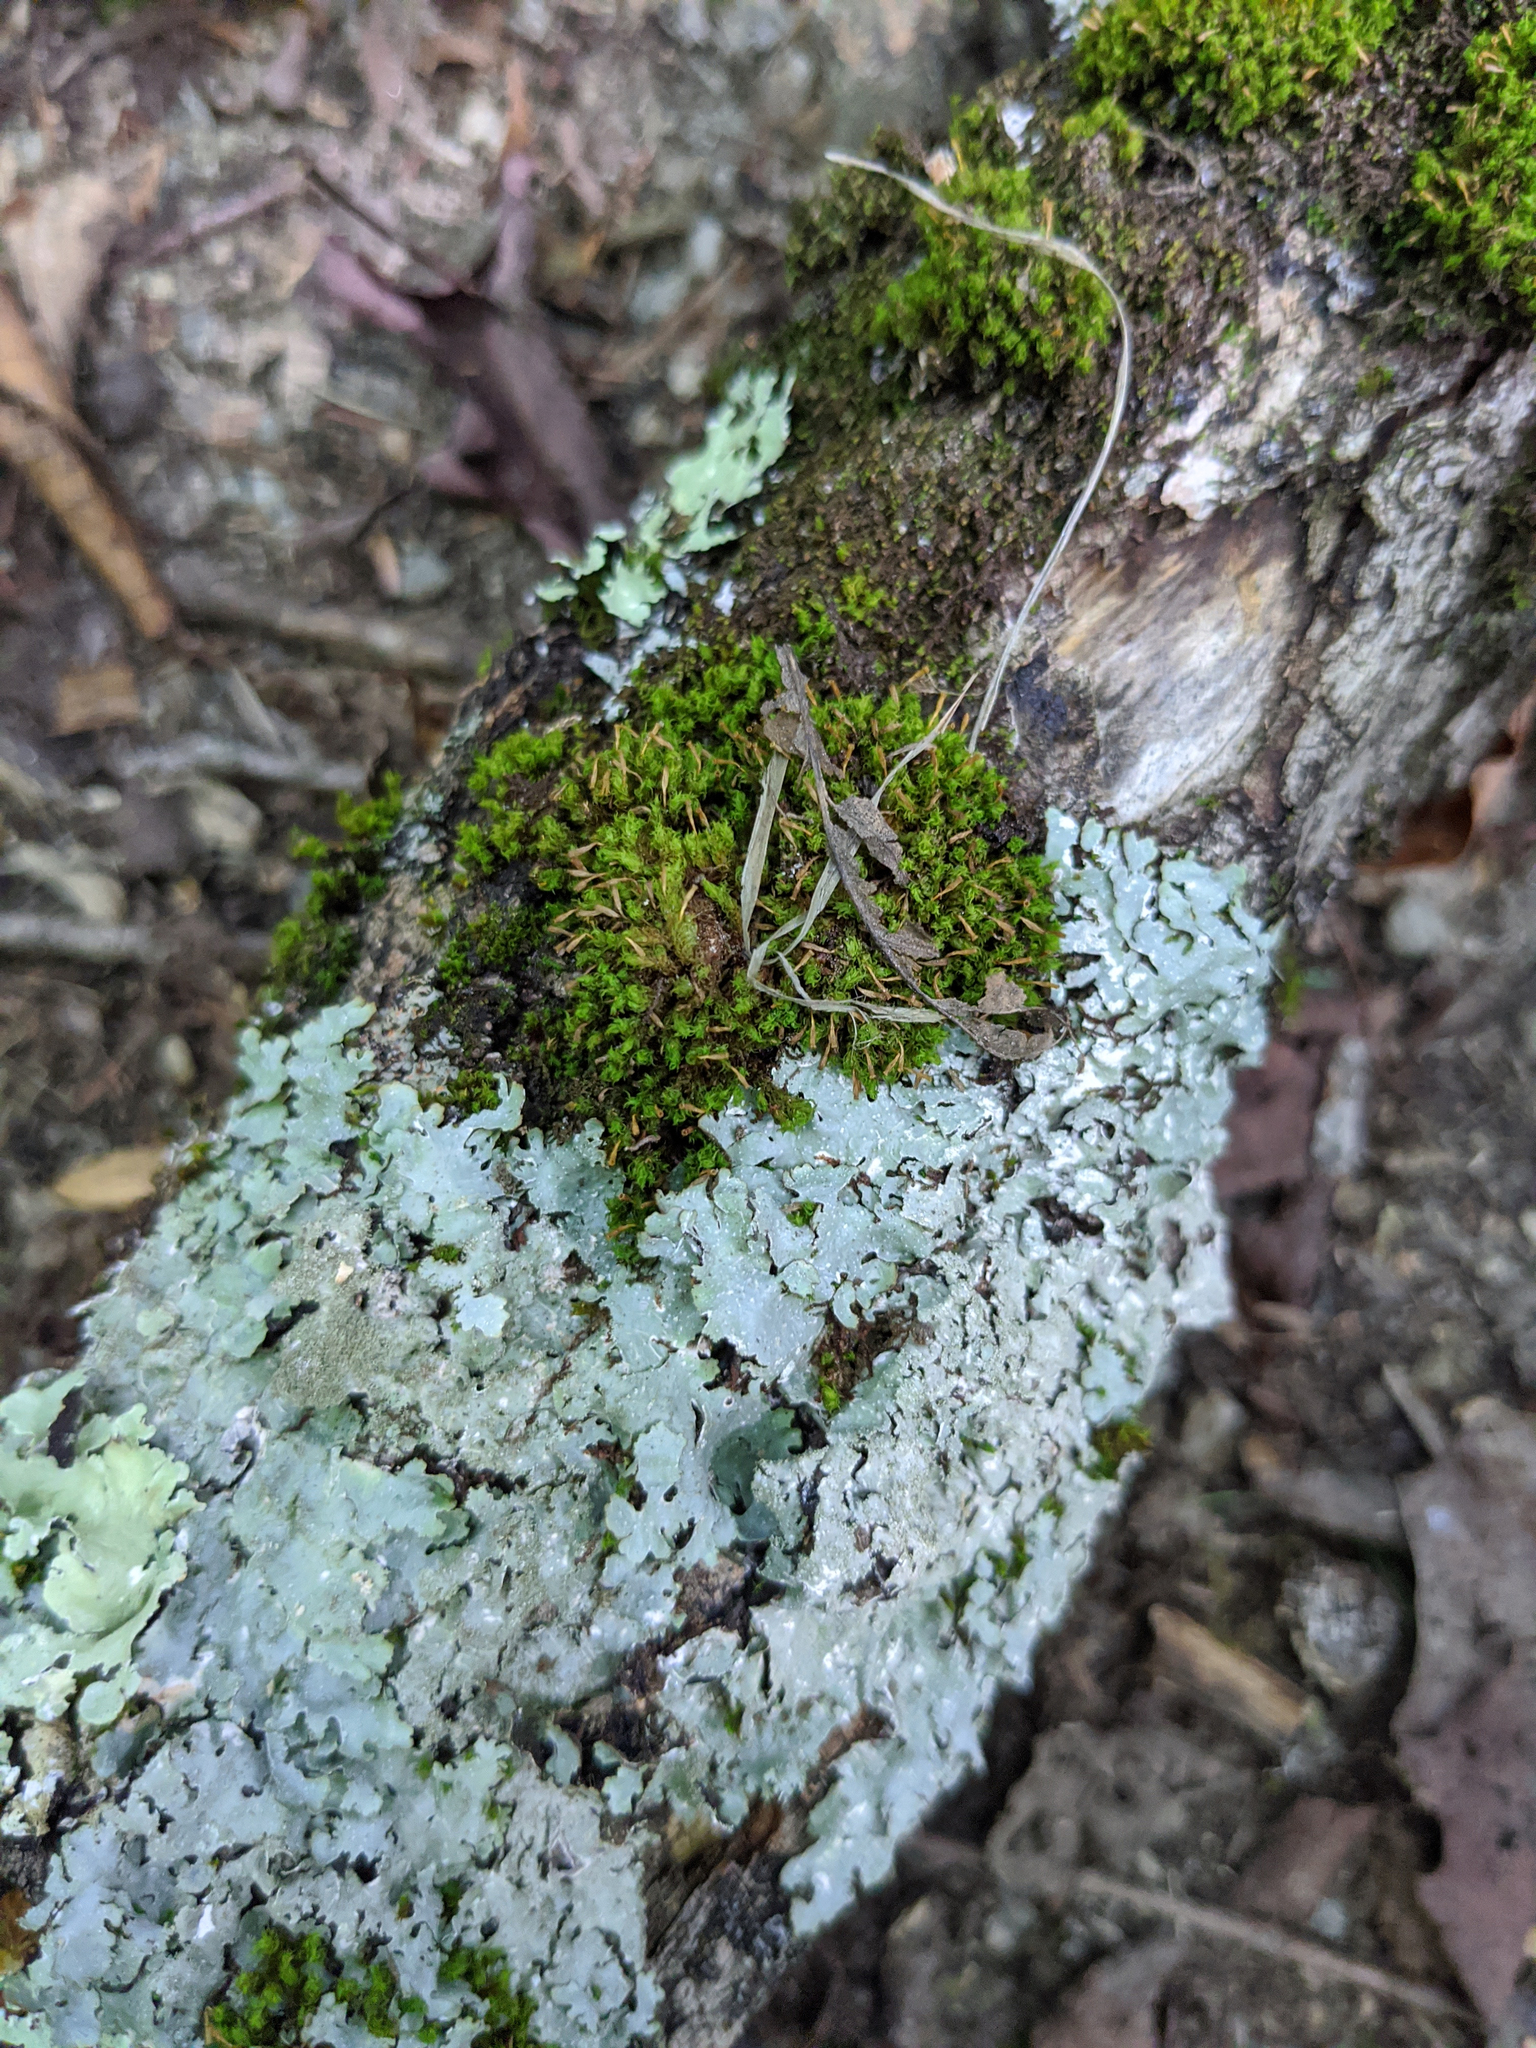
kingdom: Plantae
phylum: Bryophyta
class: Bryopsida
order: Orthotrichales
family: Orthotrichaceae
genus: Ulota
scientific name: Ulota crispa
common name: Crisped pincushion moss
